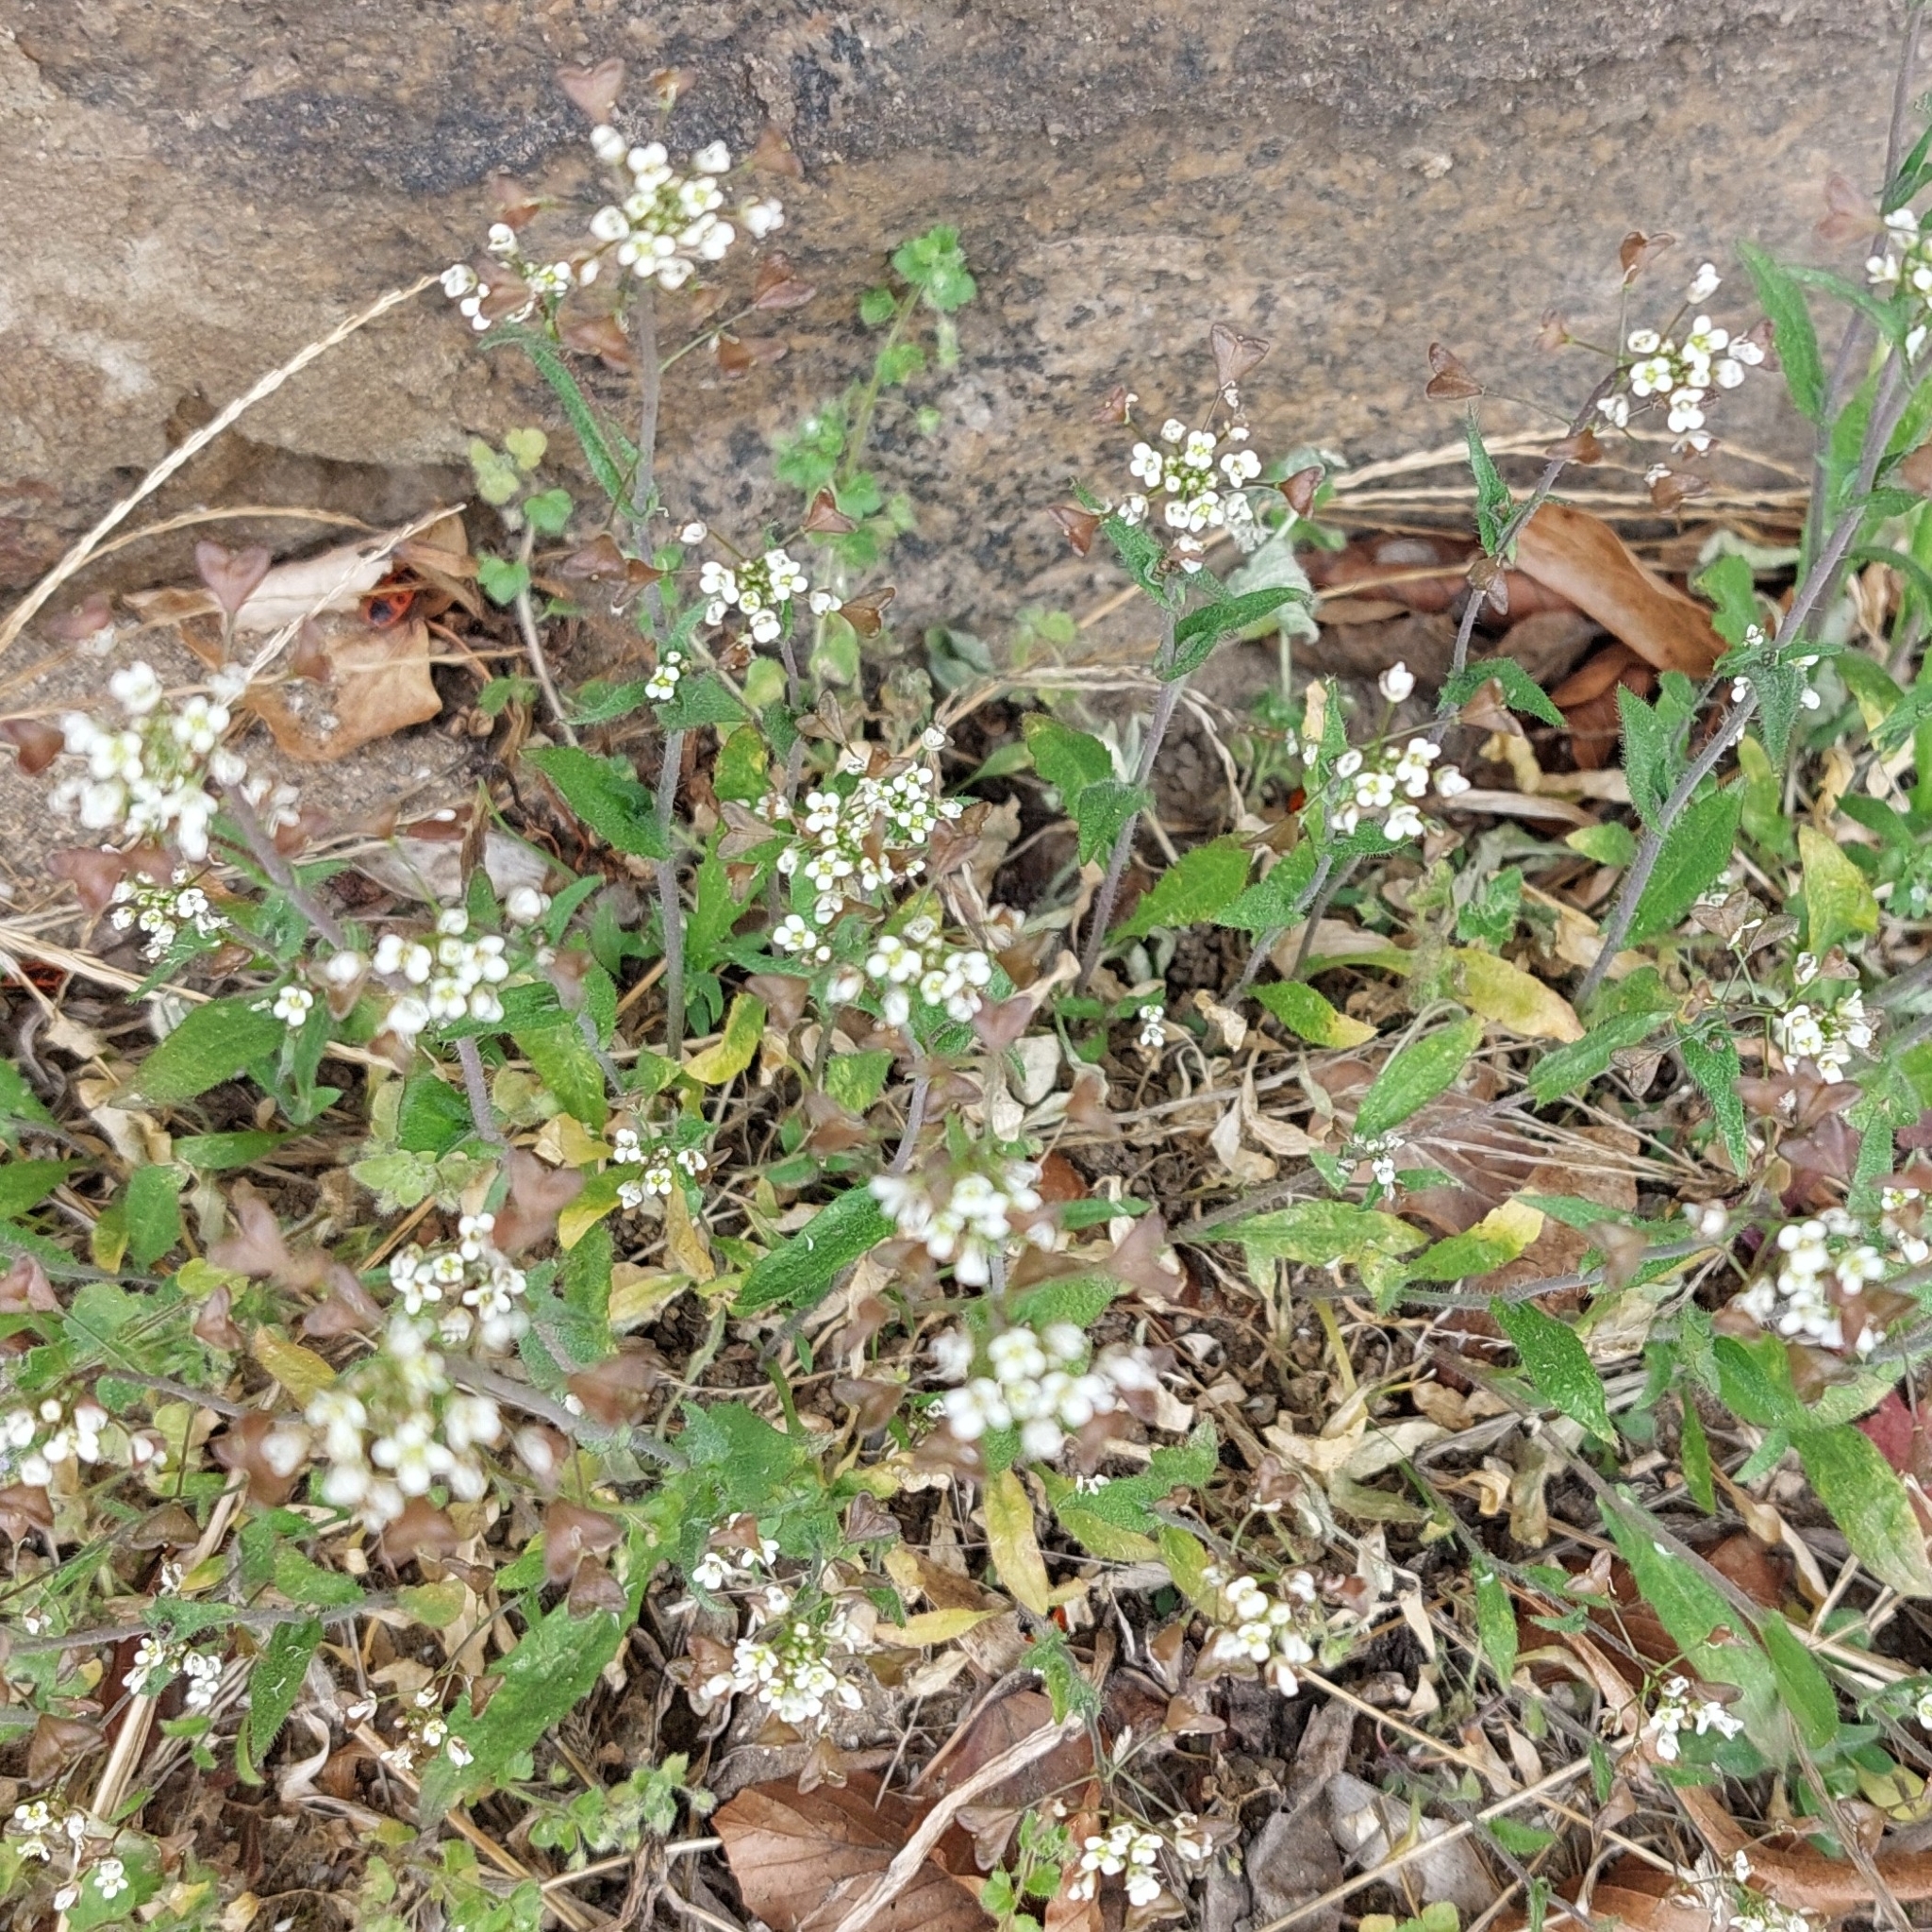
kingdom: Plantae
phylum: Tracheophyta
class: Magnoliopsida
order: Brassicales
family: Brassicaceae
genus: Capsella
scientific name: Capsella bursa-pastoris
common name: Shepherd's purse
